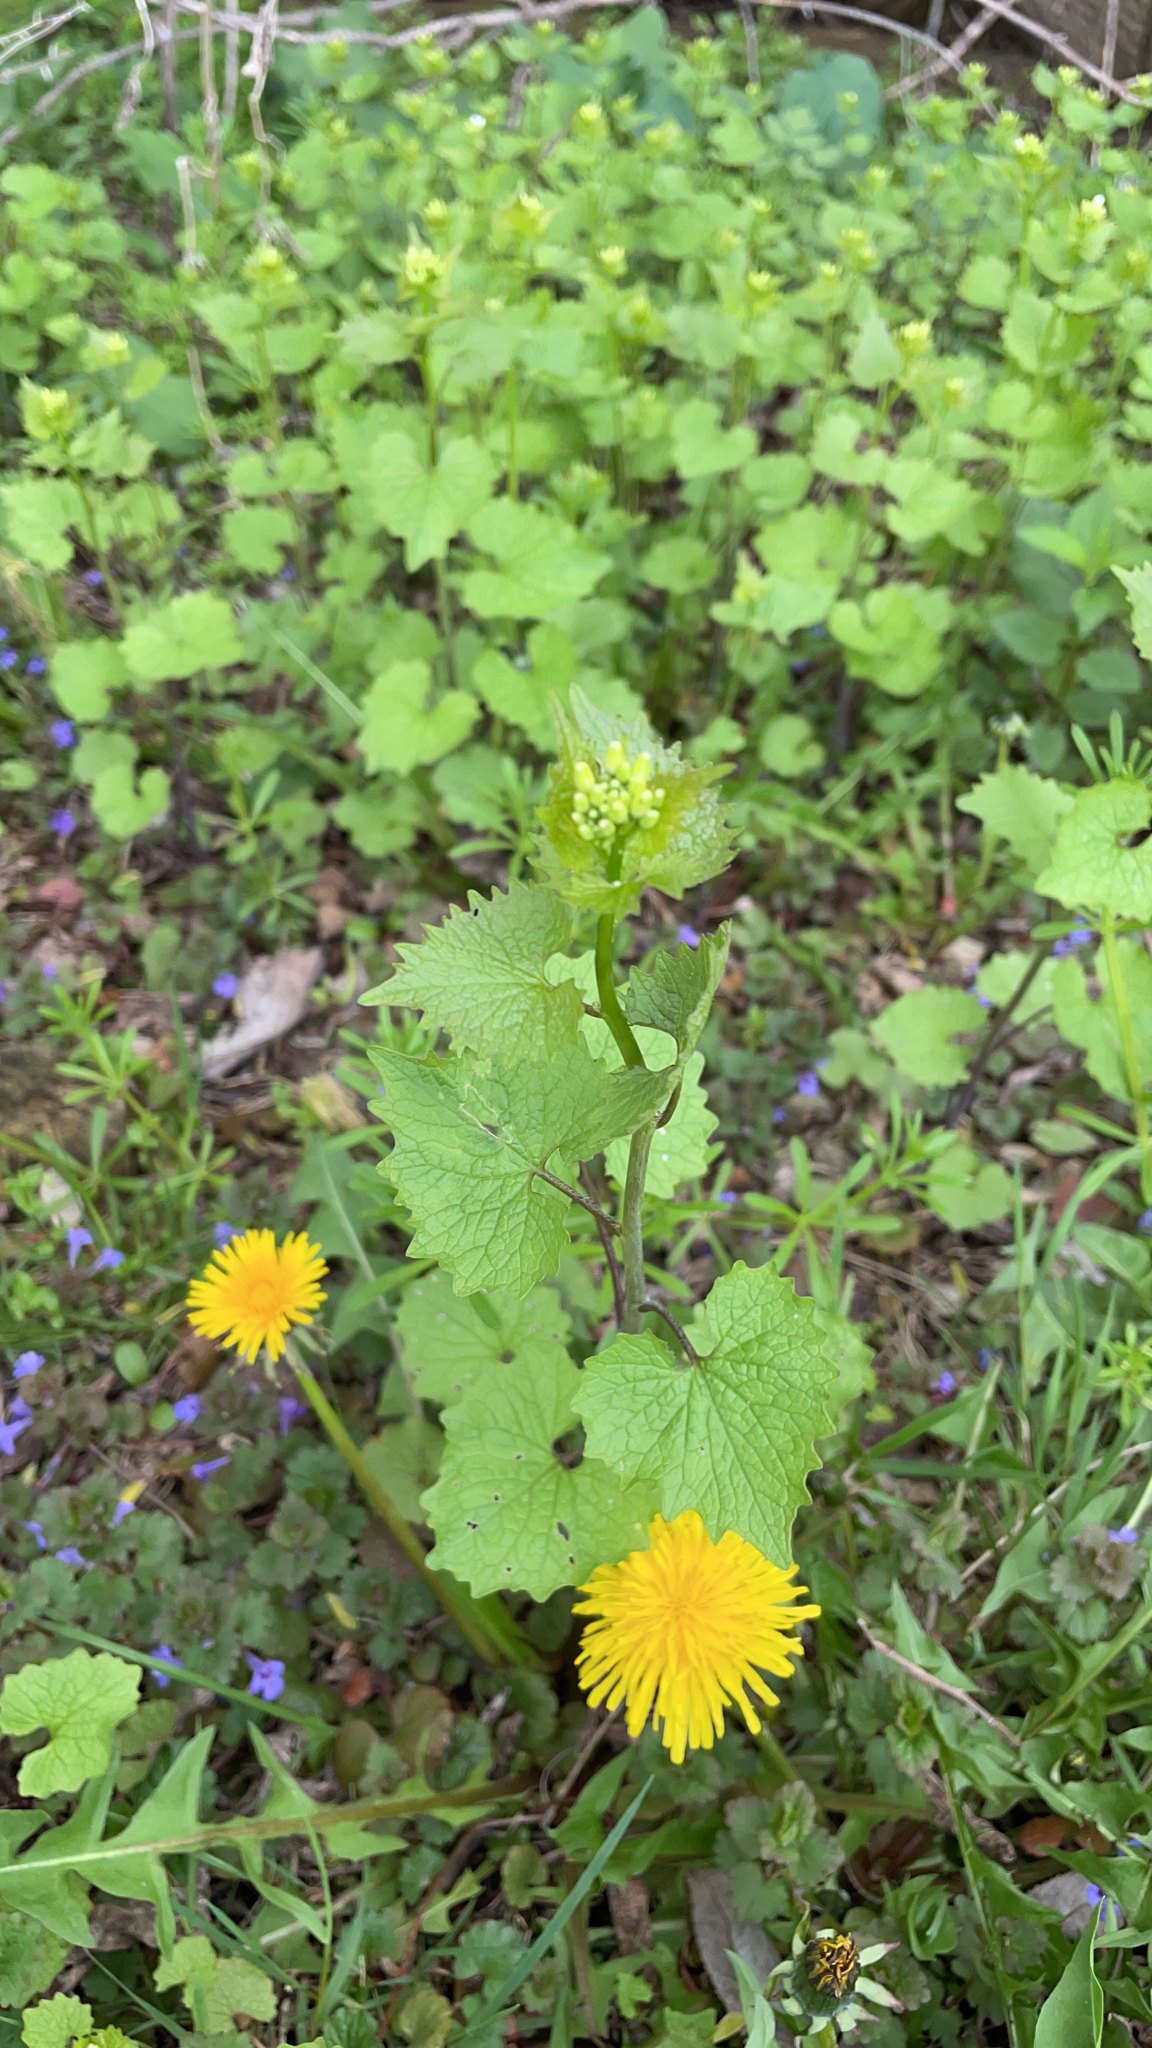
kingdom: Plantae
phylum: Tracheophyta
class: Magnoliopsida
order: Brassicales
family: Brassicaceae
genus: Alliaria
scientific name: Alliaria petiolata
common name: Garlic mustard
